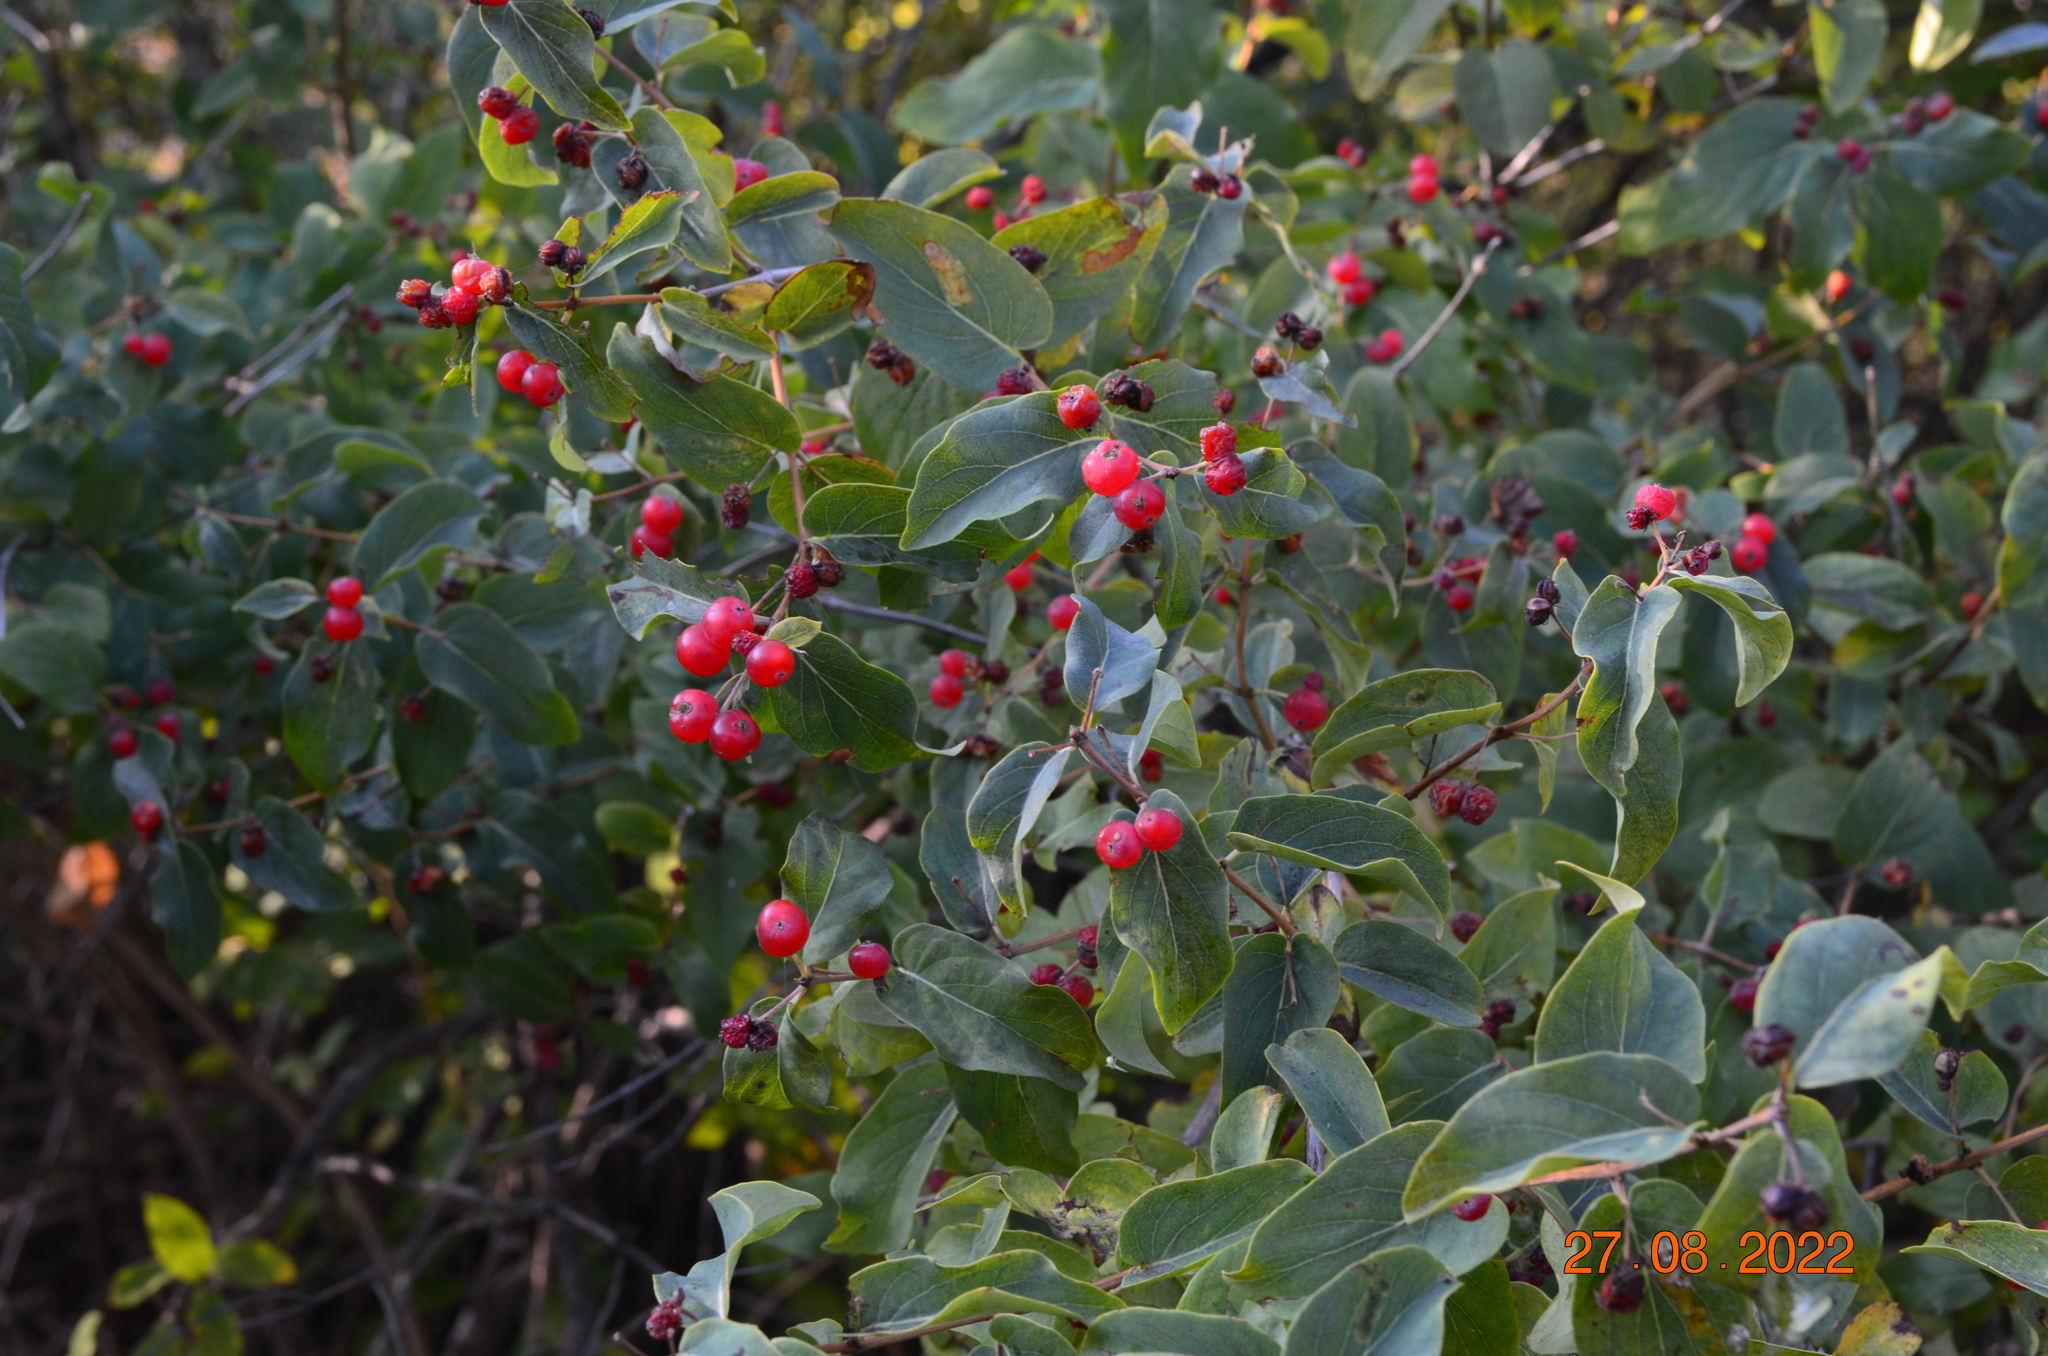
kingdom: Plantae
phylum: Tracheophyta
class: Magnoliopsida
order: Dipsacales
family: Caprifoliaceae
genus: Lonicera
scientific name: Lonicera tatarica
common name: Tatarian honeysuckle
